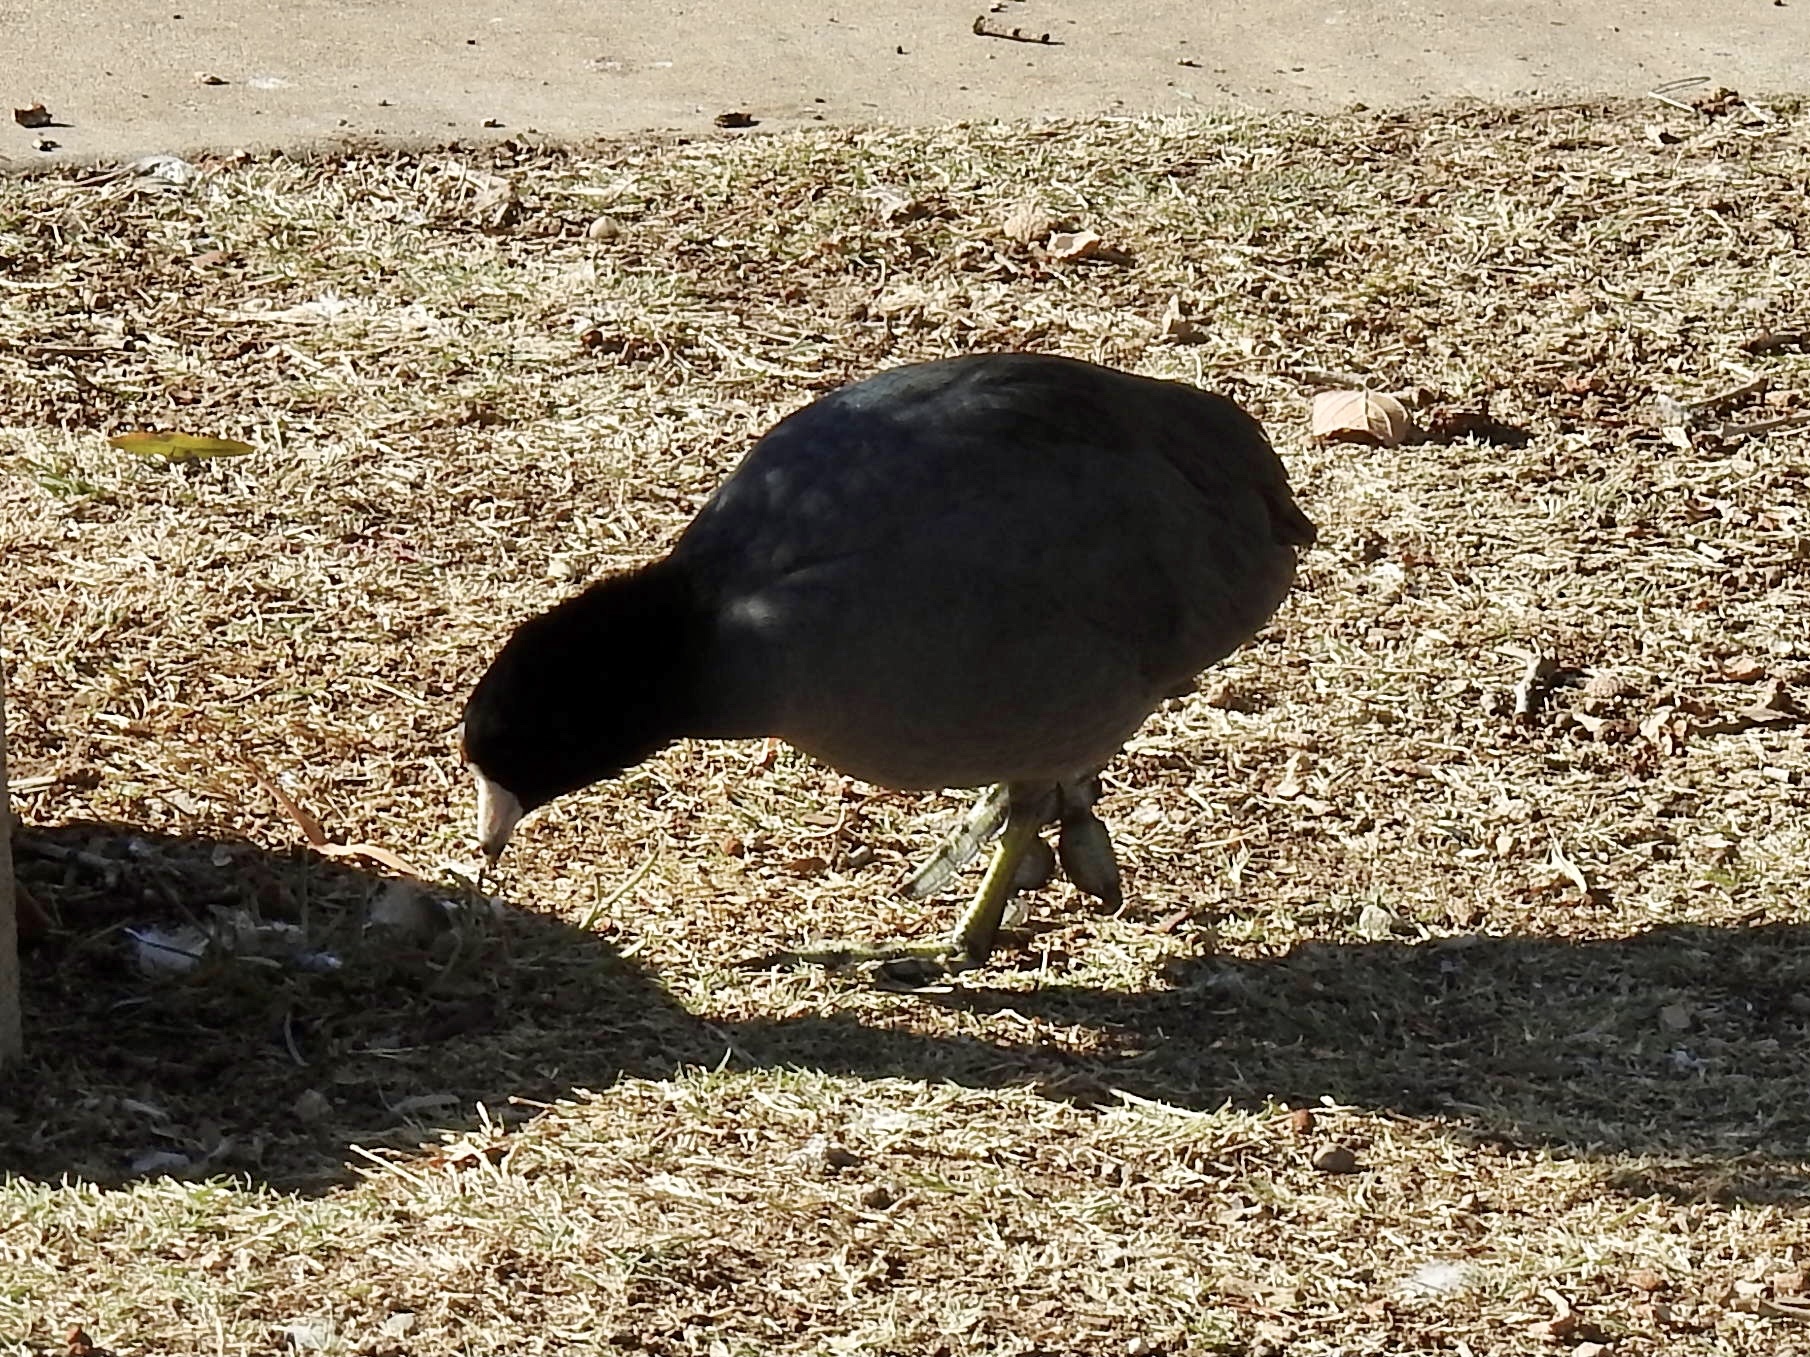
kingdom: Animalia
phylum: Chordata
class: Aves
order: Gruiformes
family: Rallidae
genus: Fulica
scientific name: Fulica americana
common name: American coot
